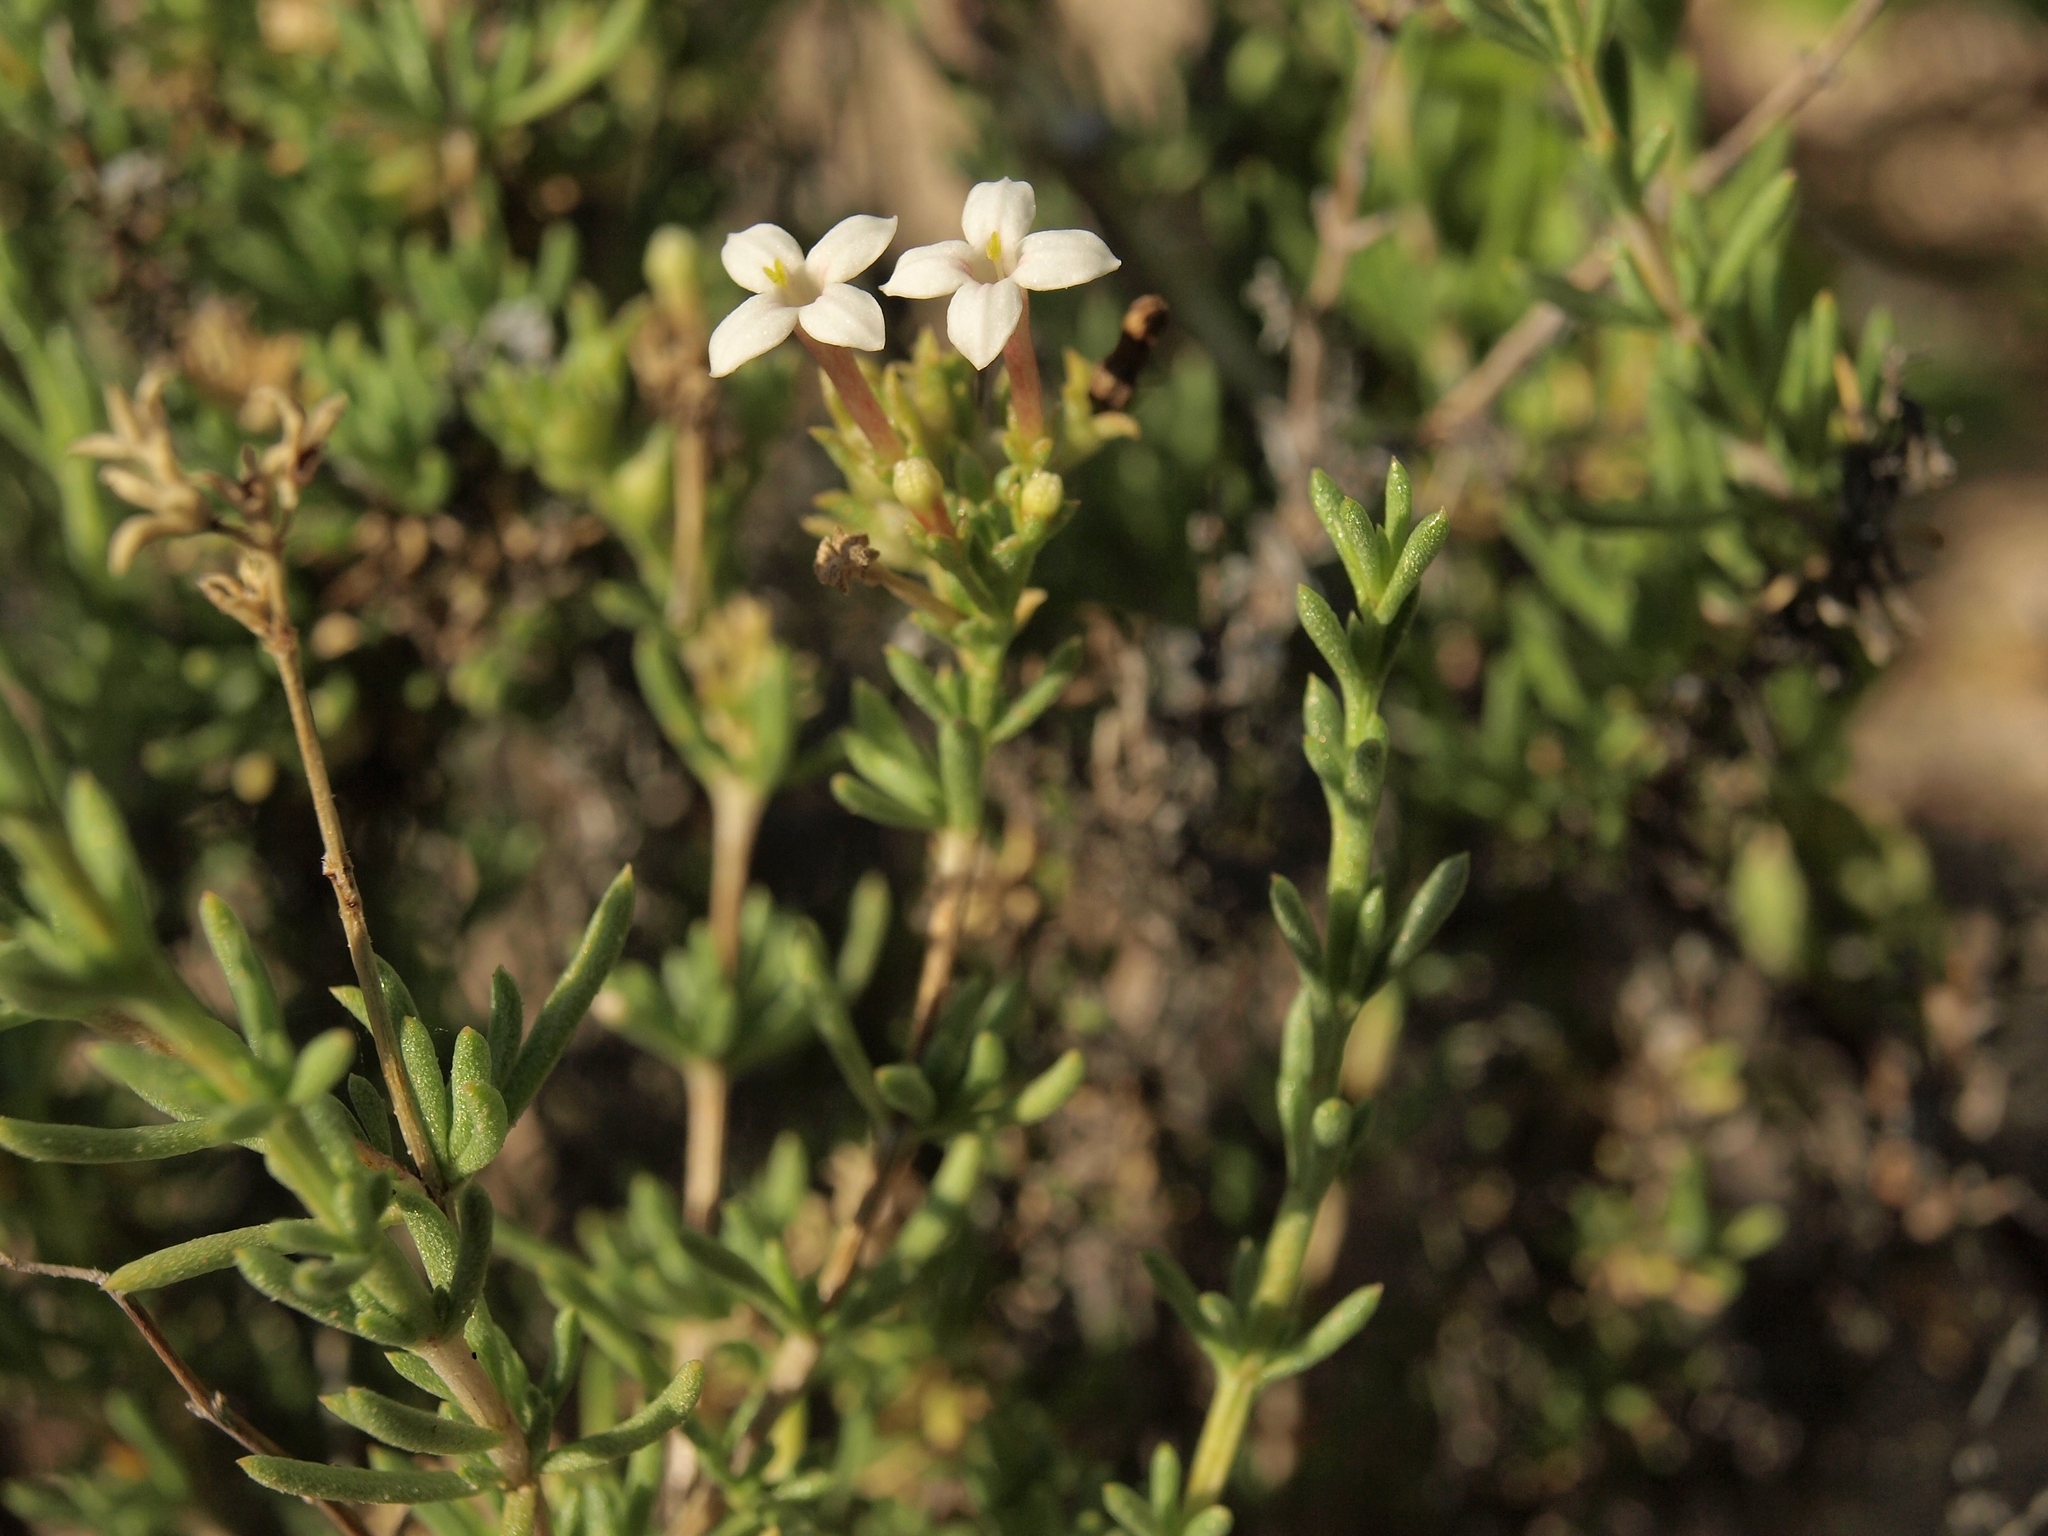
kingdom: Plantae
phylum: Tracheophyta
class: Magnoliopsida
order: Gentianales
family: Rubiaceae
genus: Stenotis
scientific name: Stenotis mucronata
